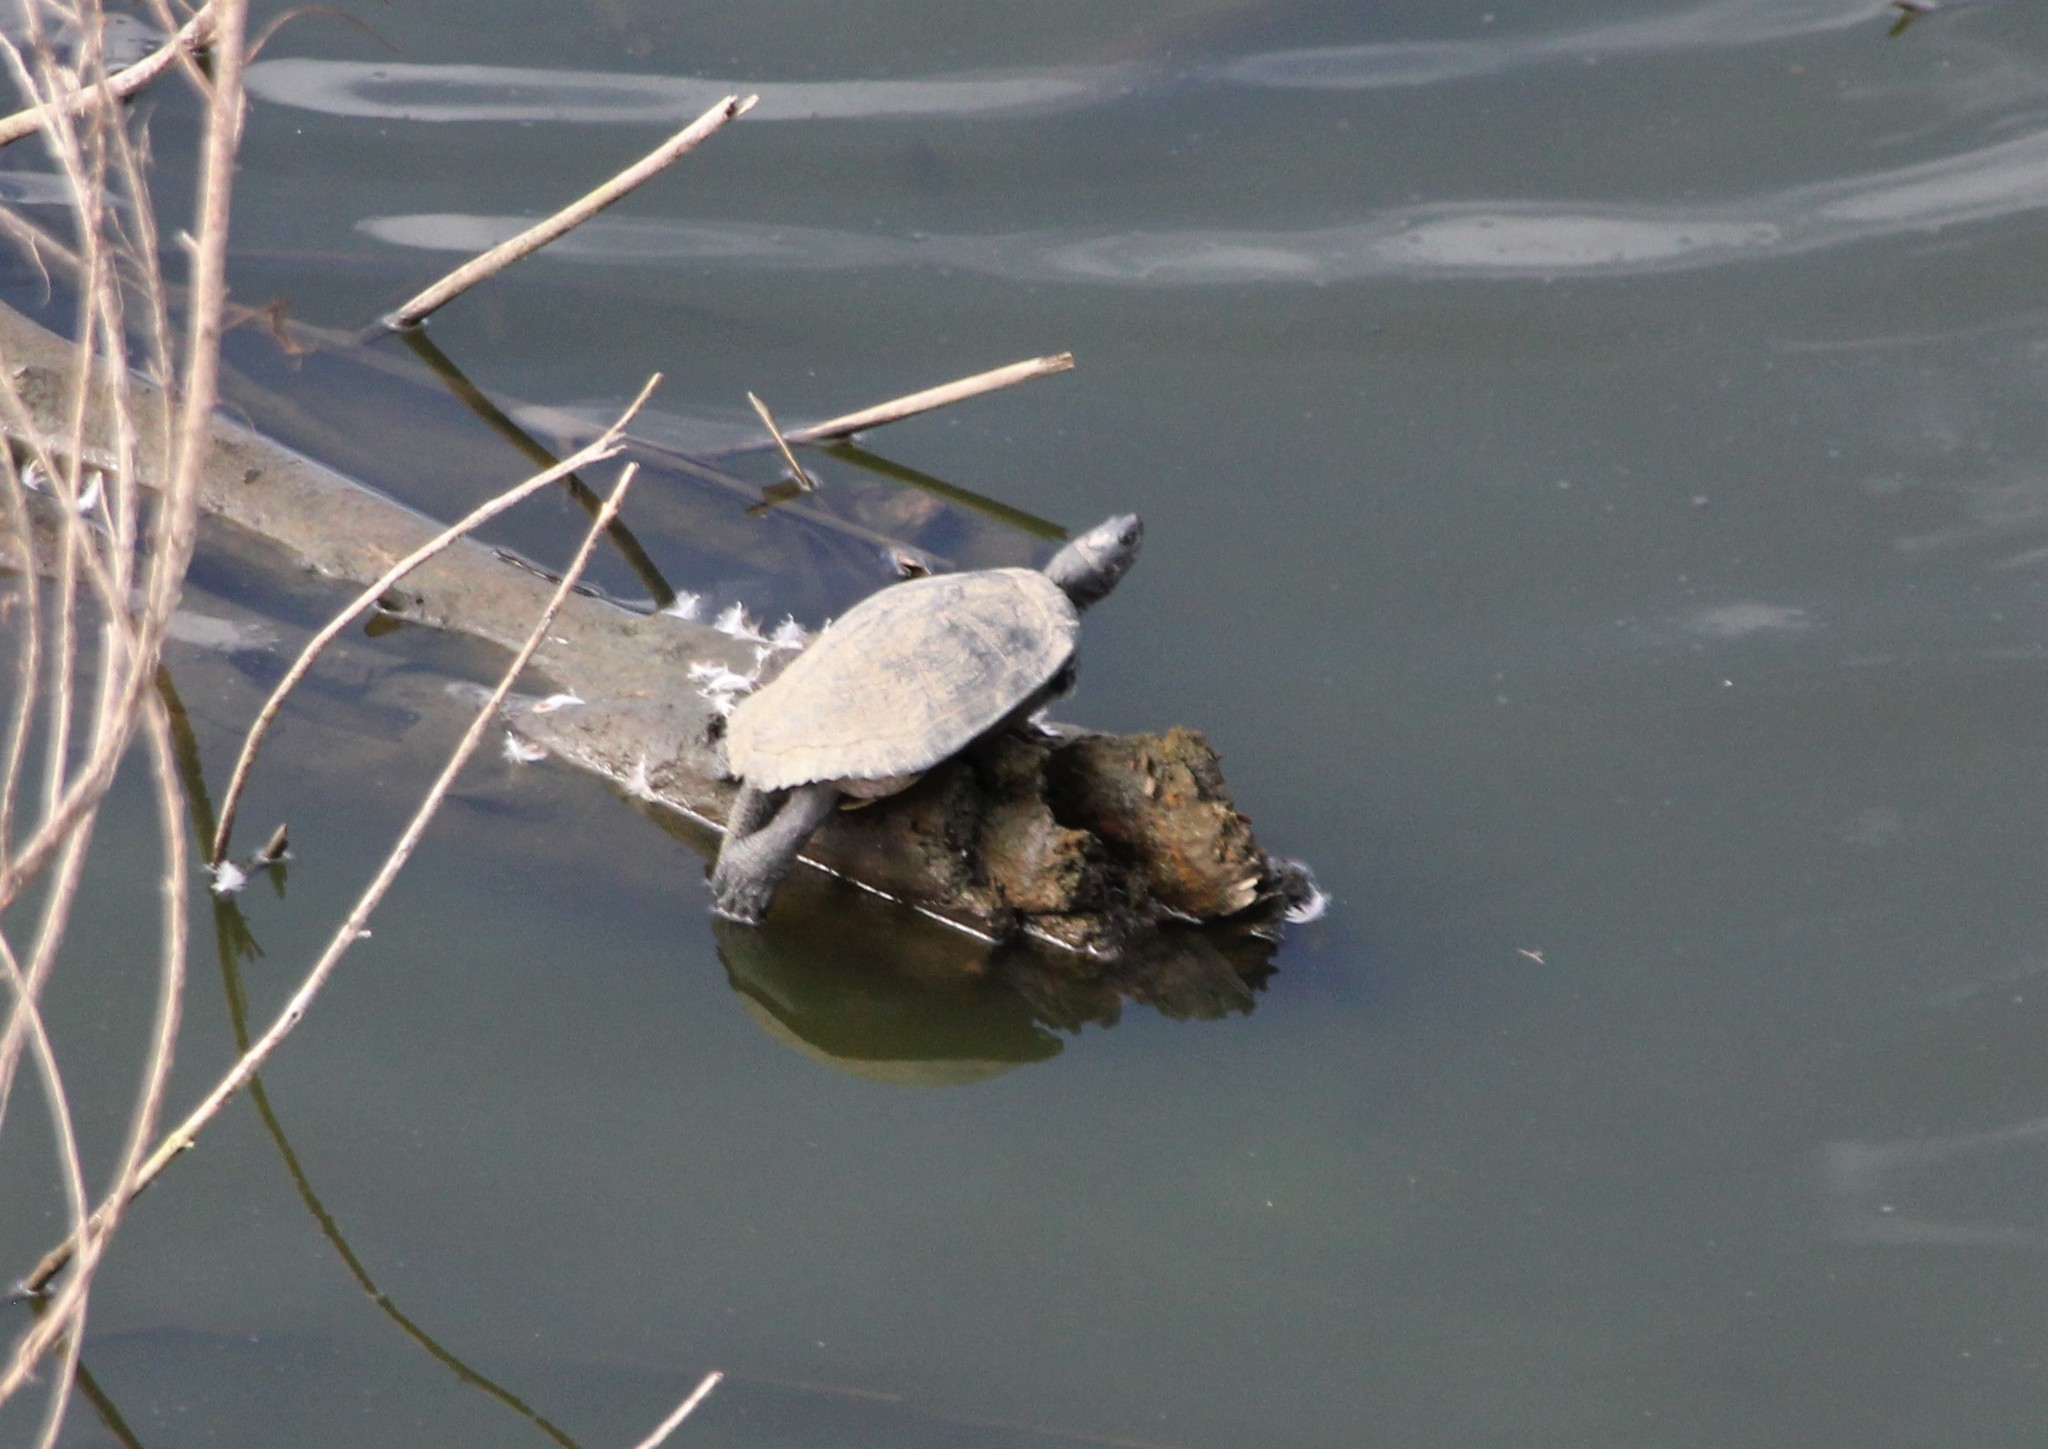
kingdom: Animalia
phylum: Chordata
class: Testudines
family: Emydidae
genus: Trachemys
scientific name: Trachemys scripta
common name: Slider
